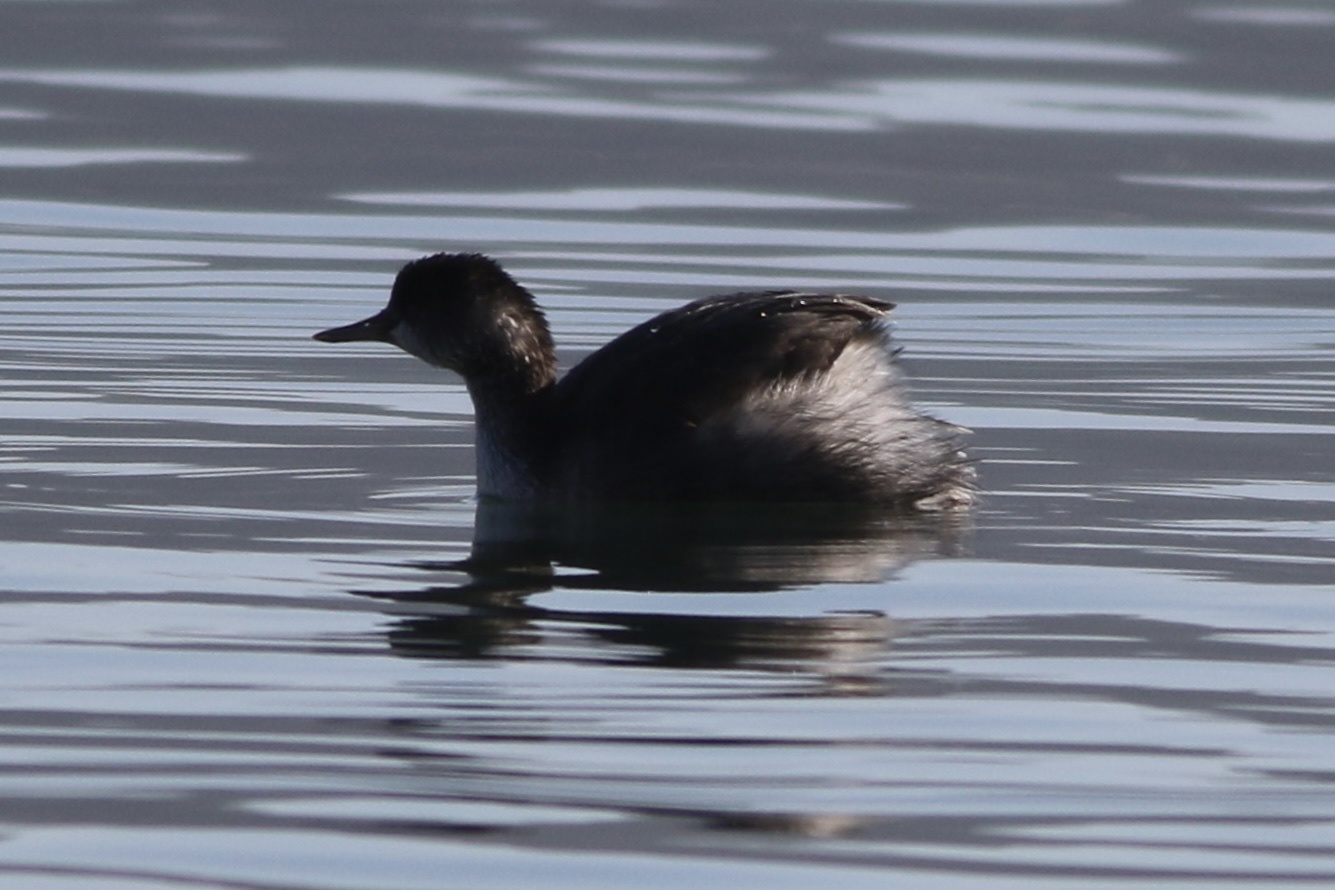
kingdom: Animalia
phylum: Chordata
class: Aves
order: Podicipediformes
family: Podicipedidae
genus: Podiceps
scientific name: Podiceps nigricollis
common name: Black-necked grebe
